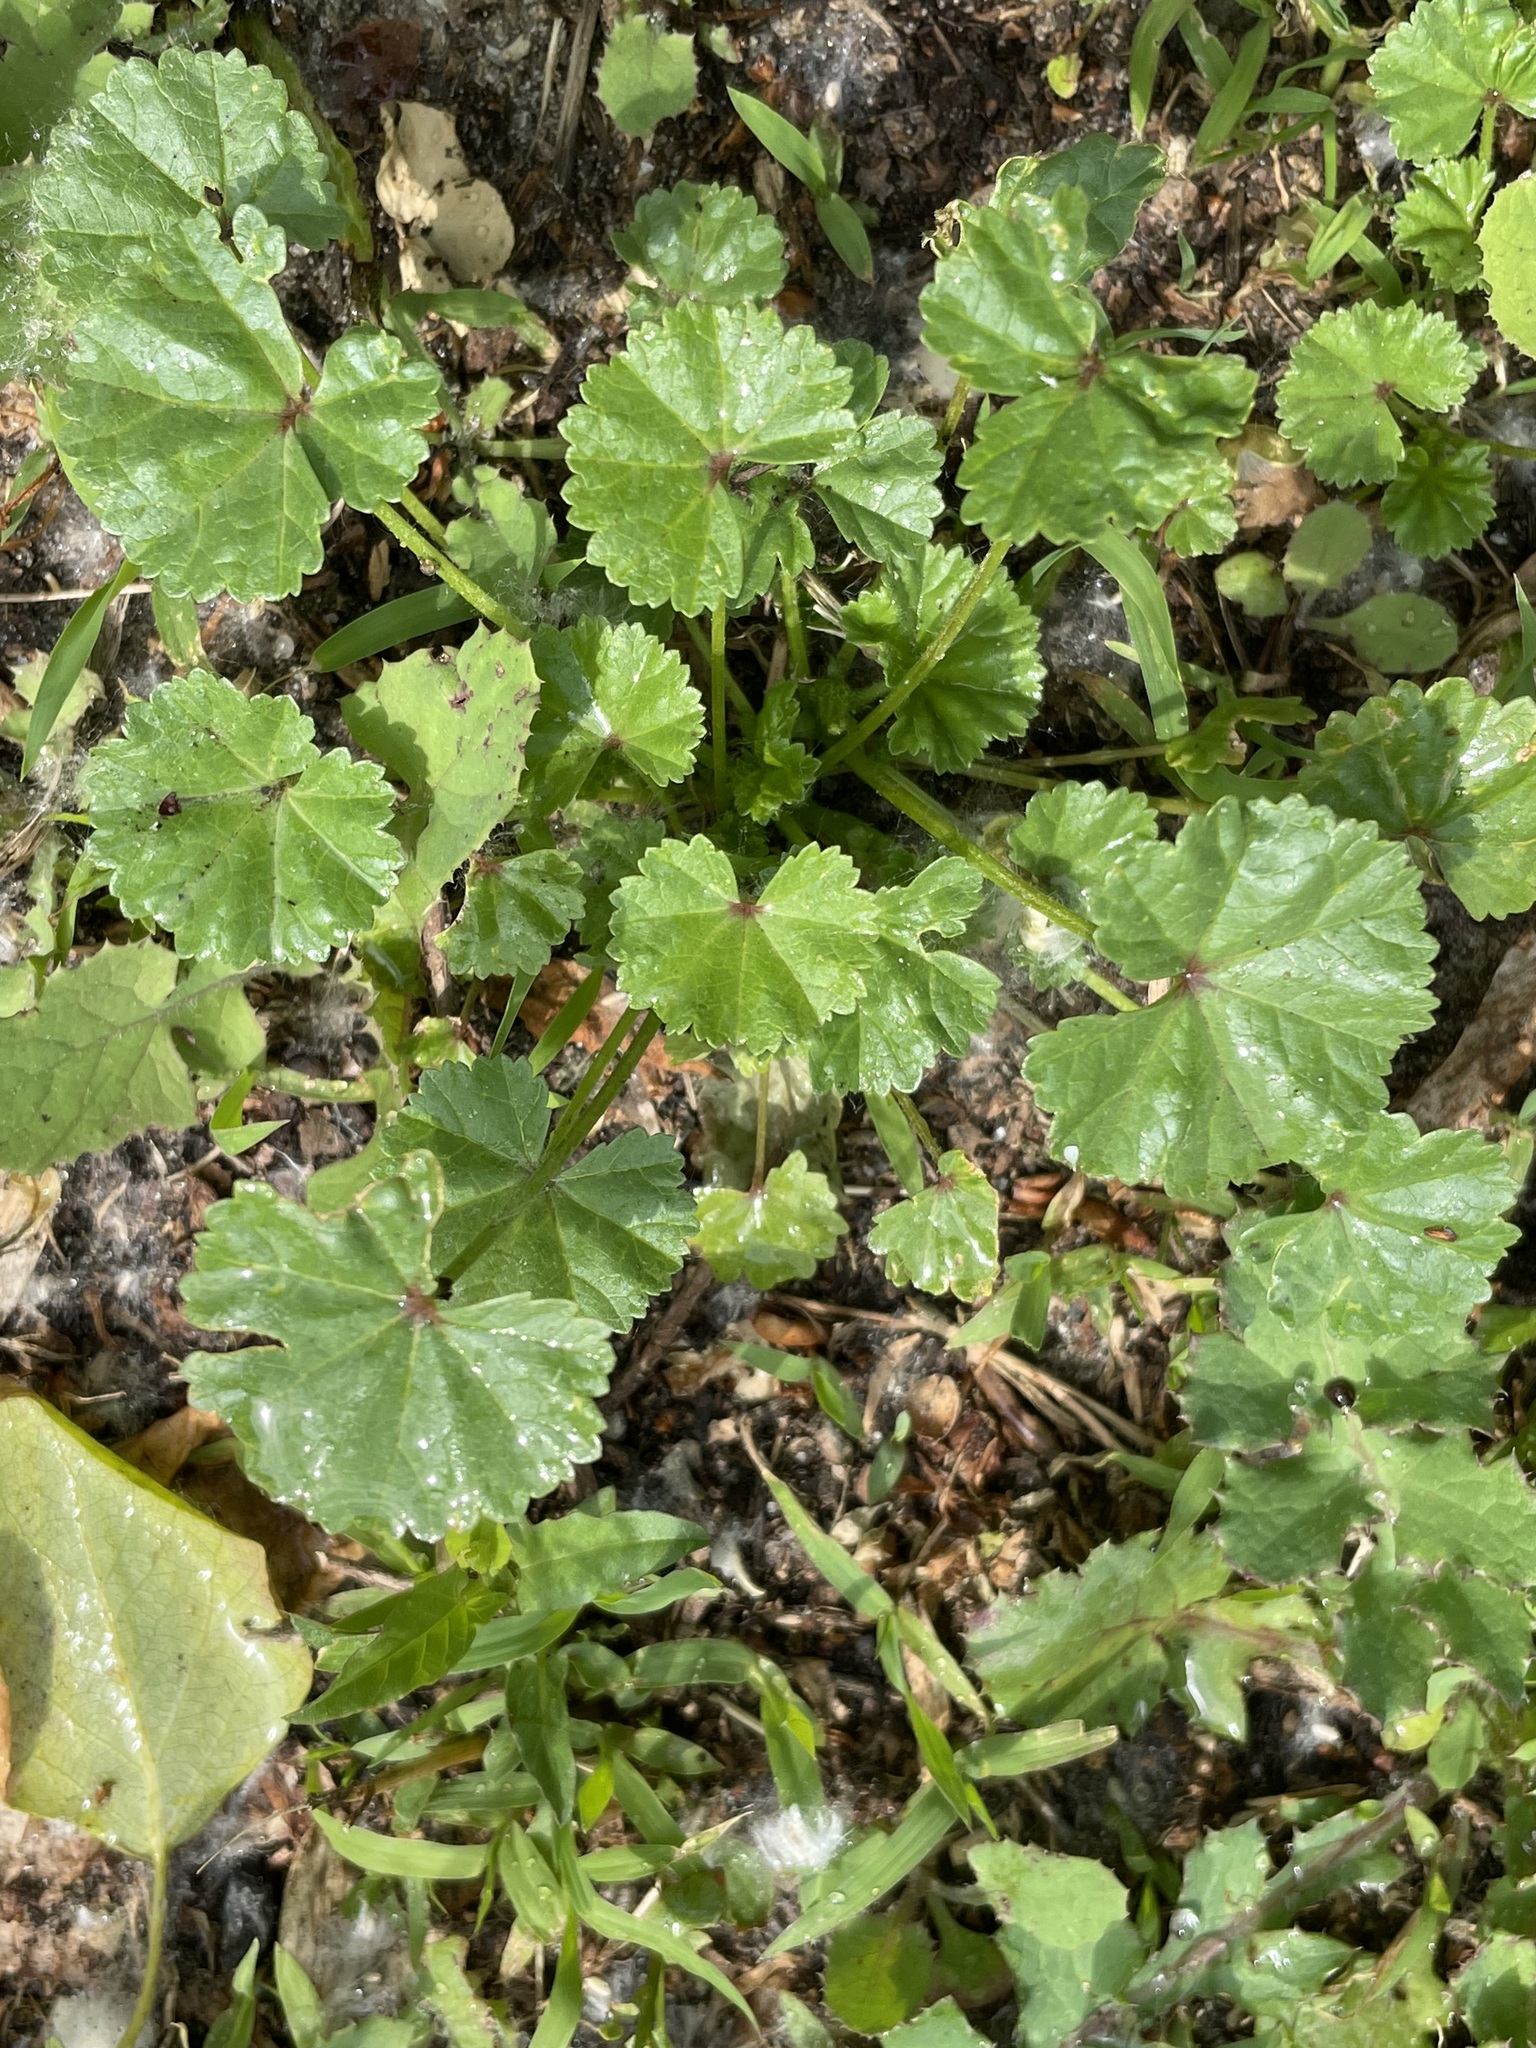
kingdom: Plantae
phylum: Tracheophyta
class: Magnoliopsida
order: Malvales
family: Malvaceae
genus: Malva
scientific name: Malva pusilla
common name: Small mallow
